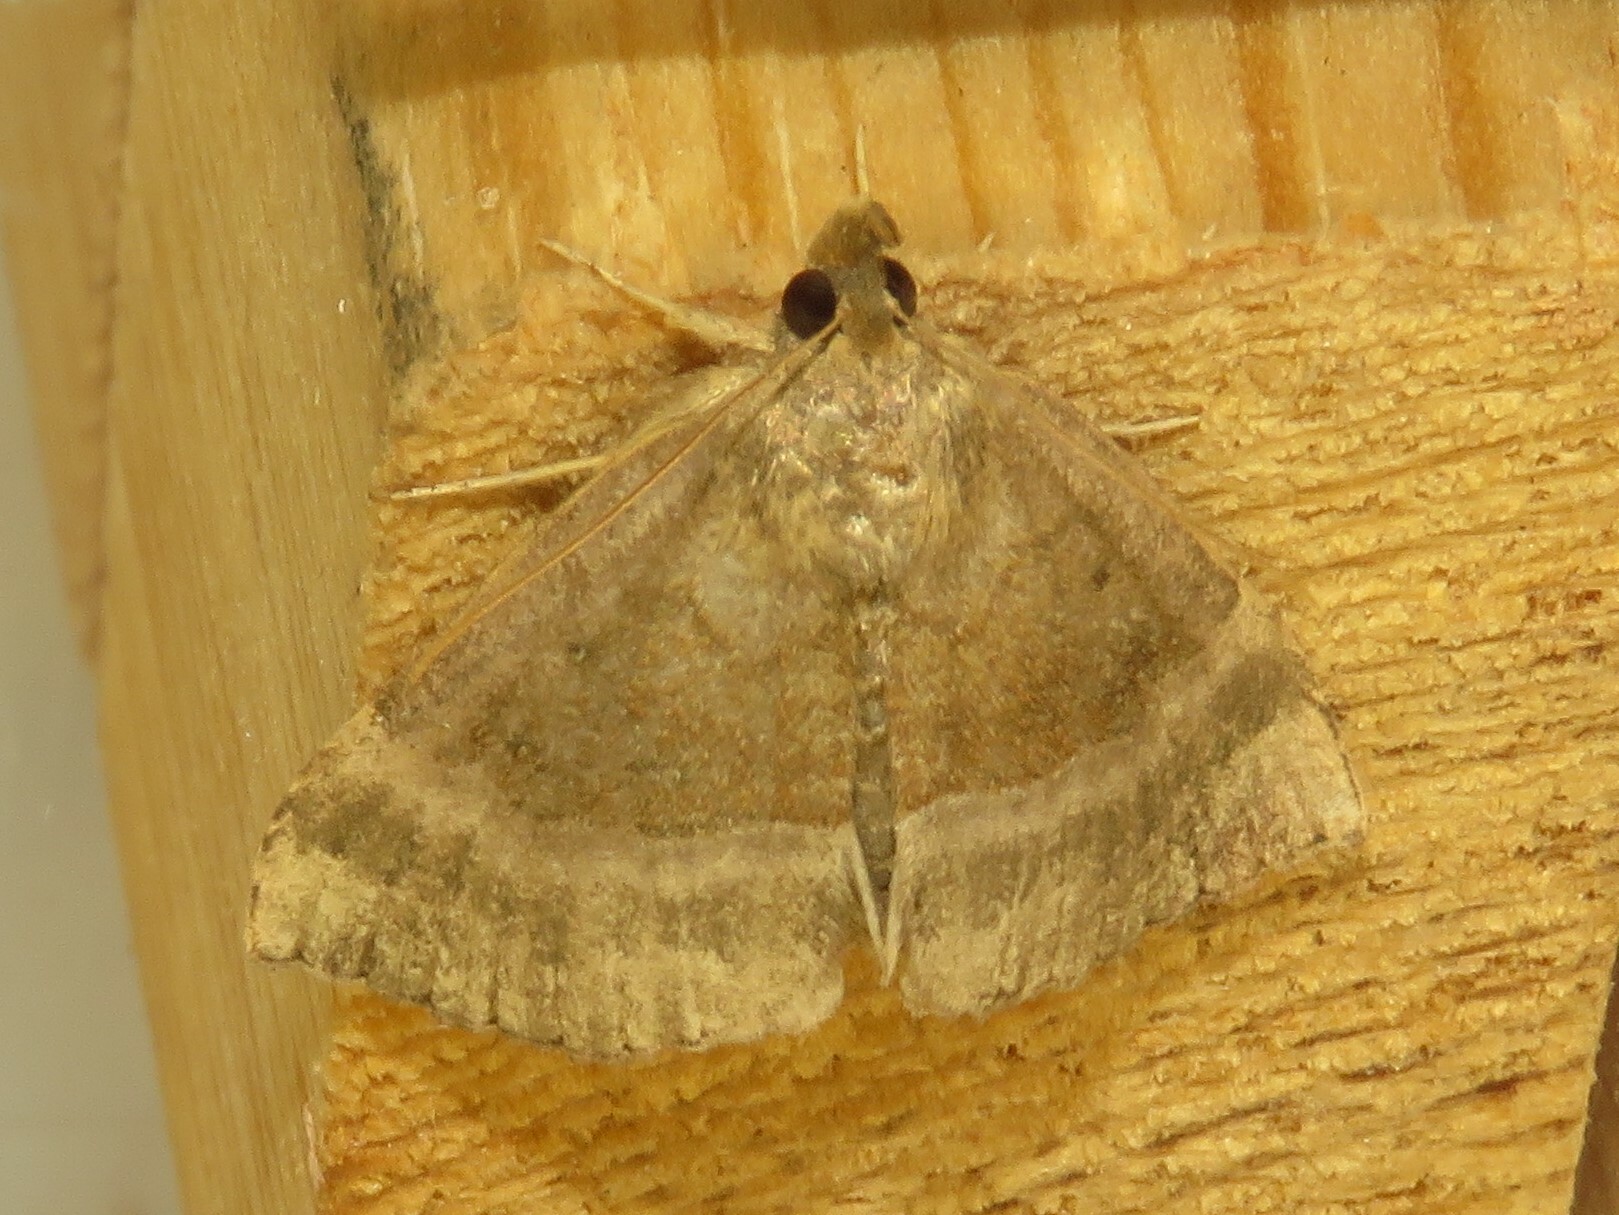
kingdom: Animalia
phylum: Arthropoda
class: Insecta
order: Lepidoptera
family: Erebidae
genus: Hypena
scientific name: Hypena madefactalis
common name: Gray-edged snout
